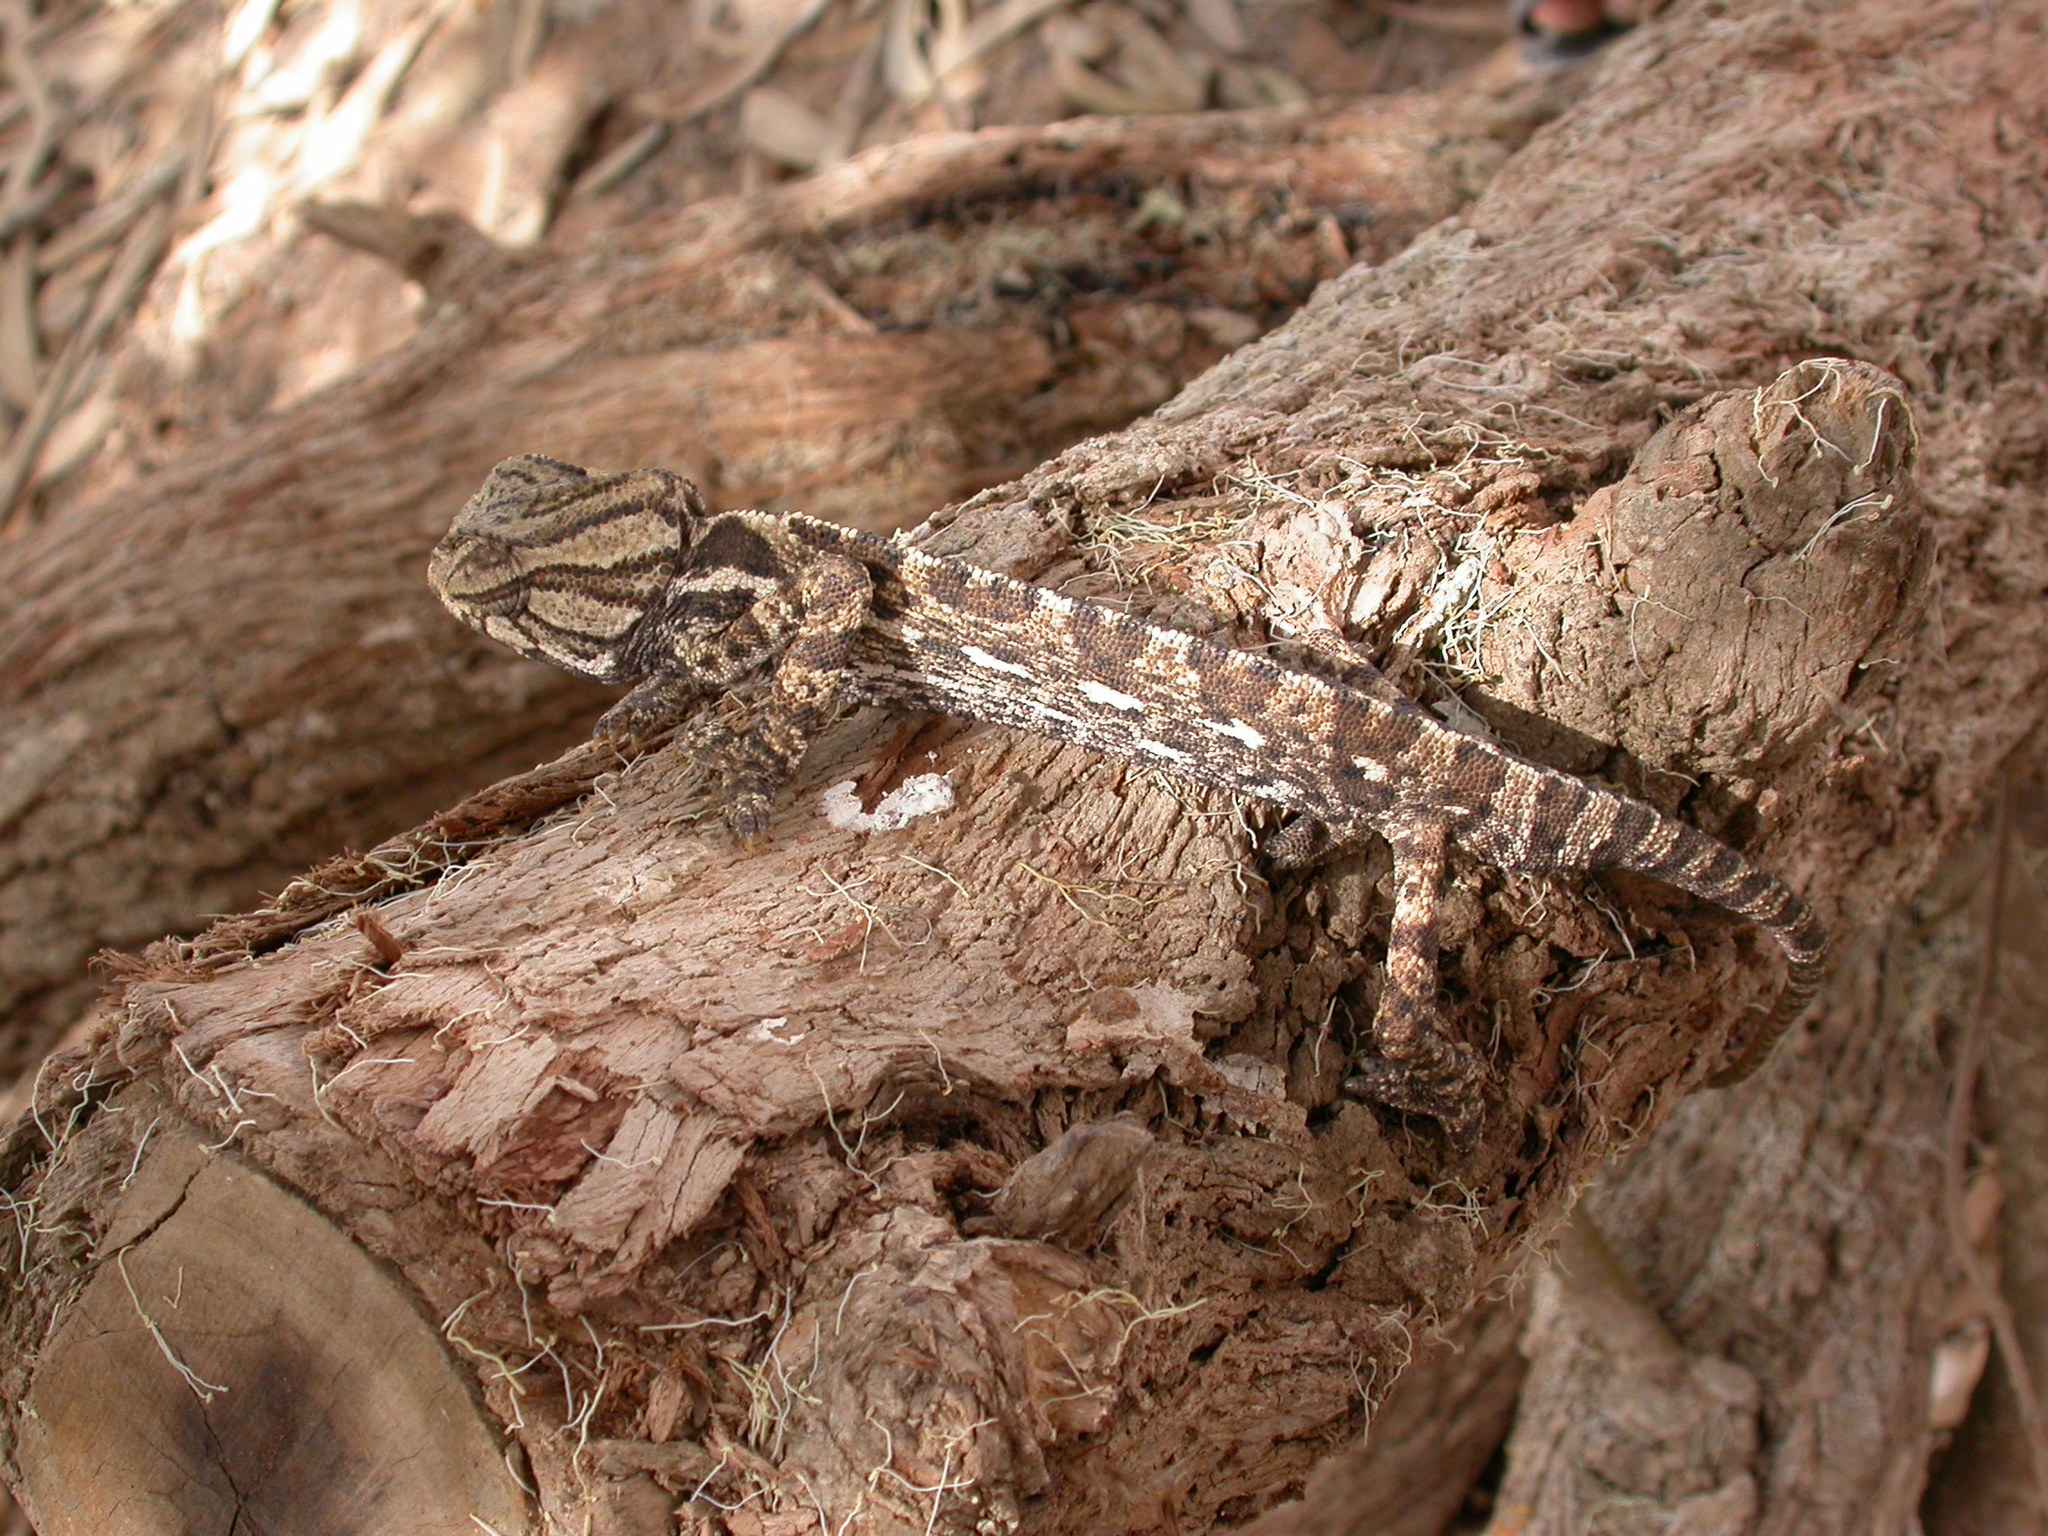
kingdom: Animalia
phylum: Chordata
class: Squamata
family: Chamaeleonidae
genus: Chamaeleo
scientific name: Chamaeleo chamaeleon
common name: Mediterranean chameleon
